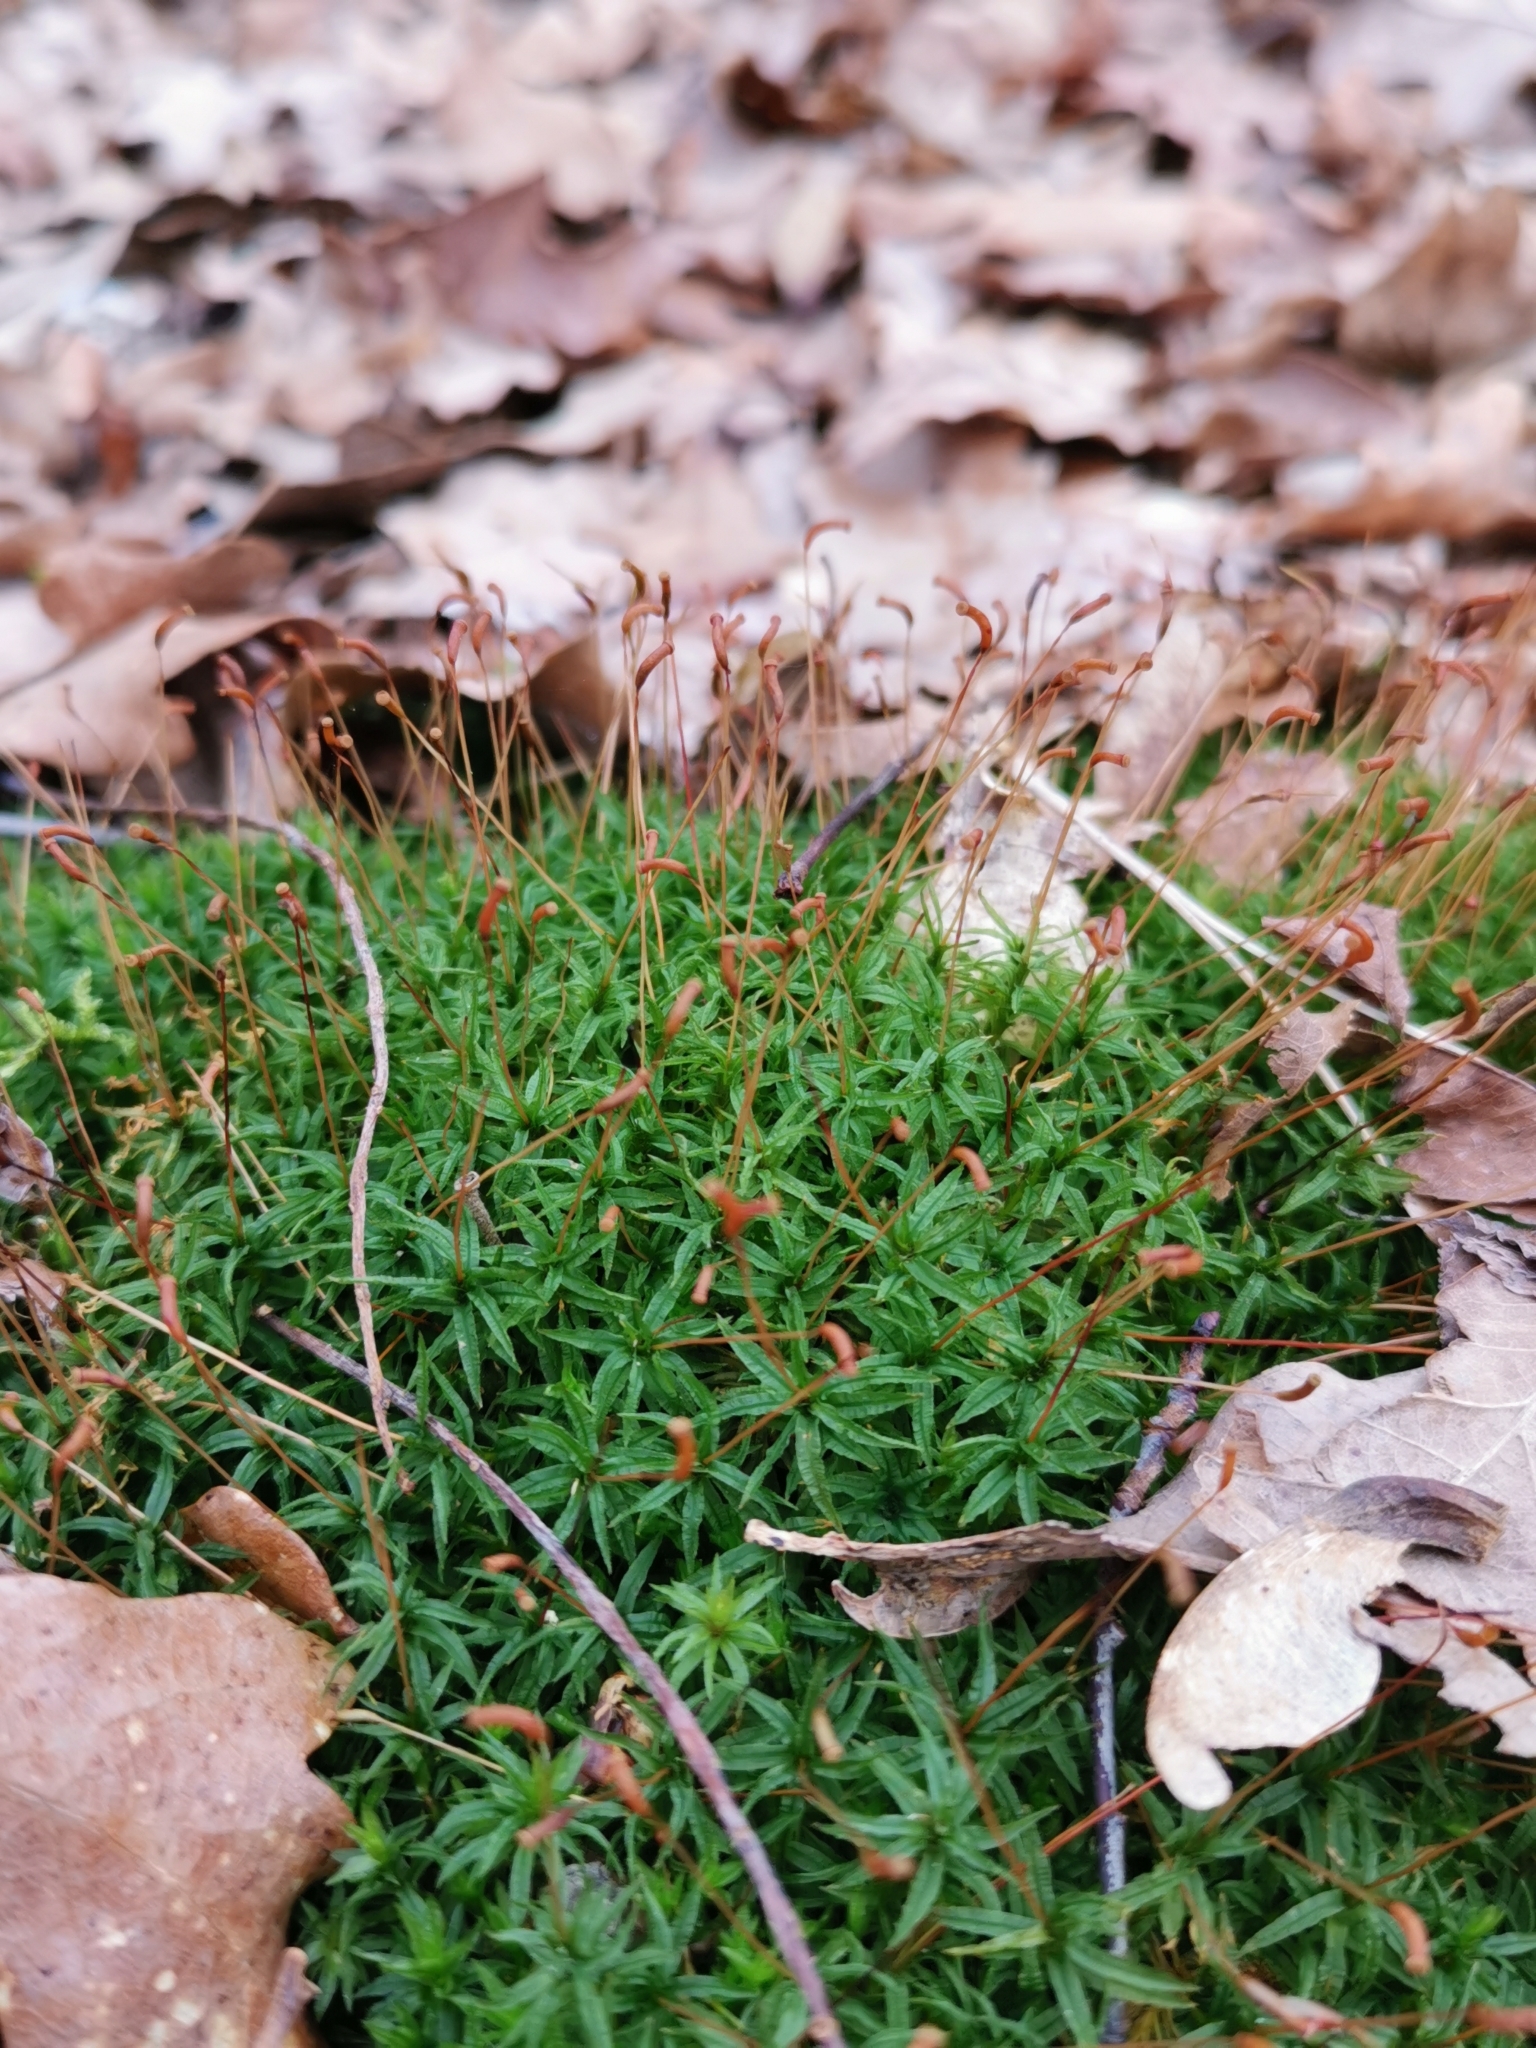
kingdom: Plantae
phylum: Bryophyta
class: Polytrichopsida
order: Polytrichales
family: Polytrichaceae
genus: Atrichum
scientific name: Atrichum undulatum
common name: Common smoothcap
